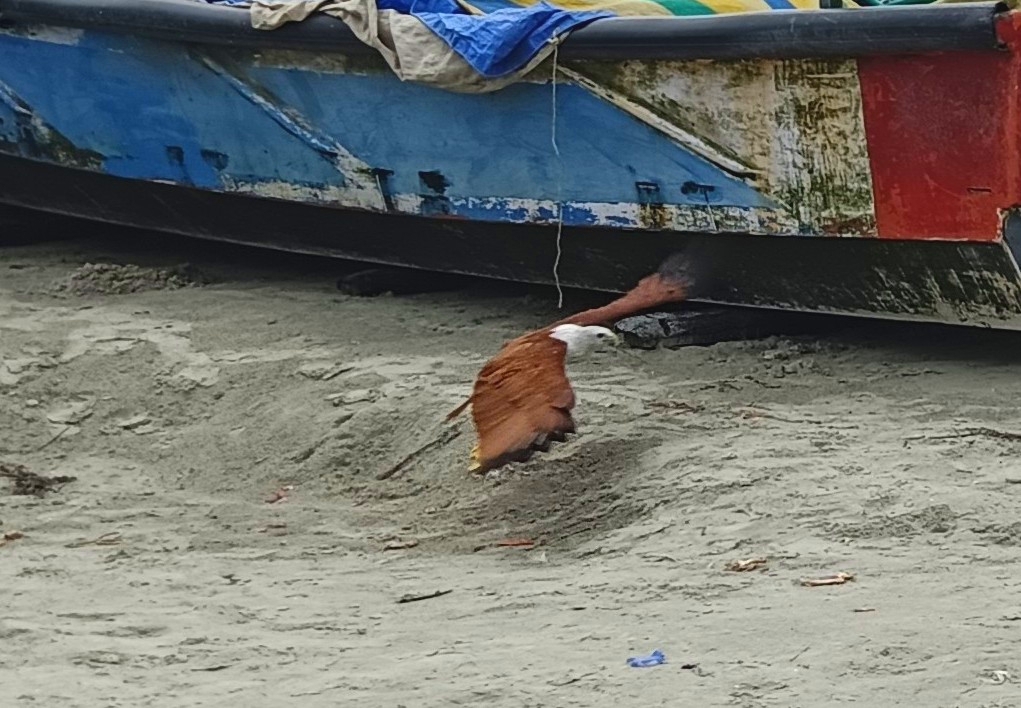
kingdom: Animalia
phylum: Chordata
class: Aves
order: Accipitriformes
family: Accipitridae
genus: Haliastur
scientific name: Haliastur indus
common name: Brahminy kite
